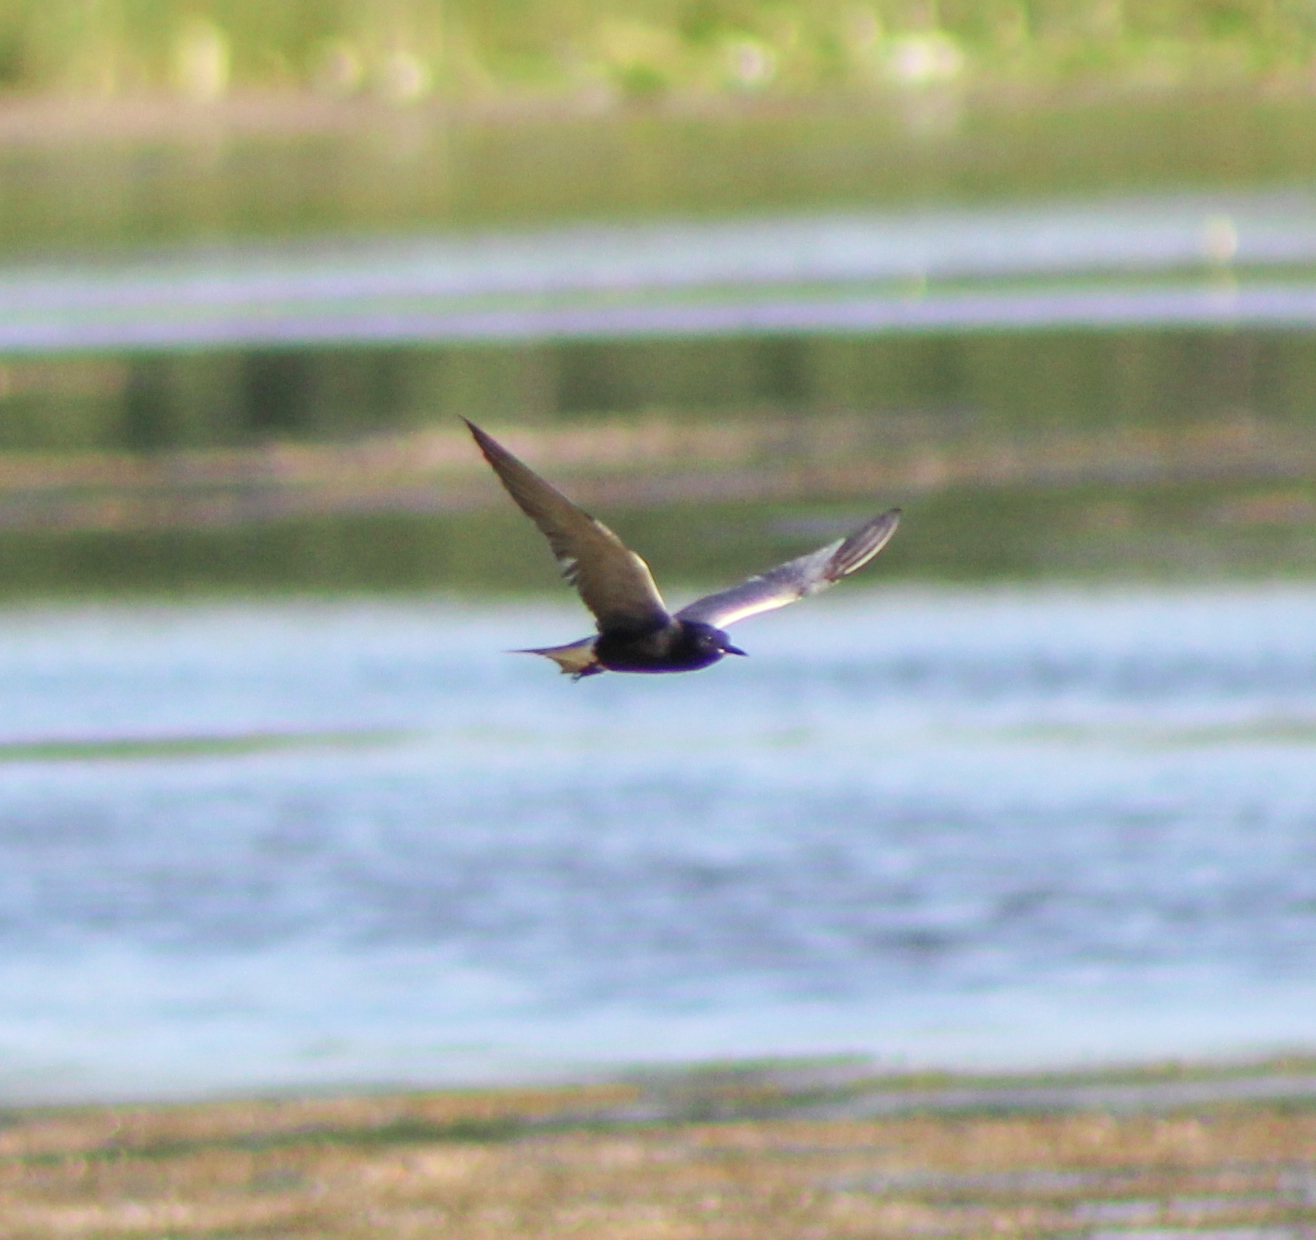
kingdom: Animalia
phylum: Chordata
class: Aves
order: Charadriiformes
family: Laridae
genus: Chlidonias
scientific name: Chlidonias niger
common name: Black tern
